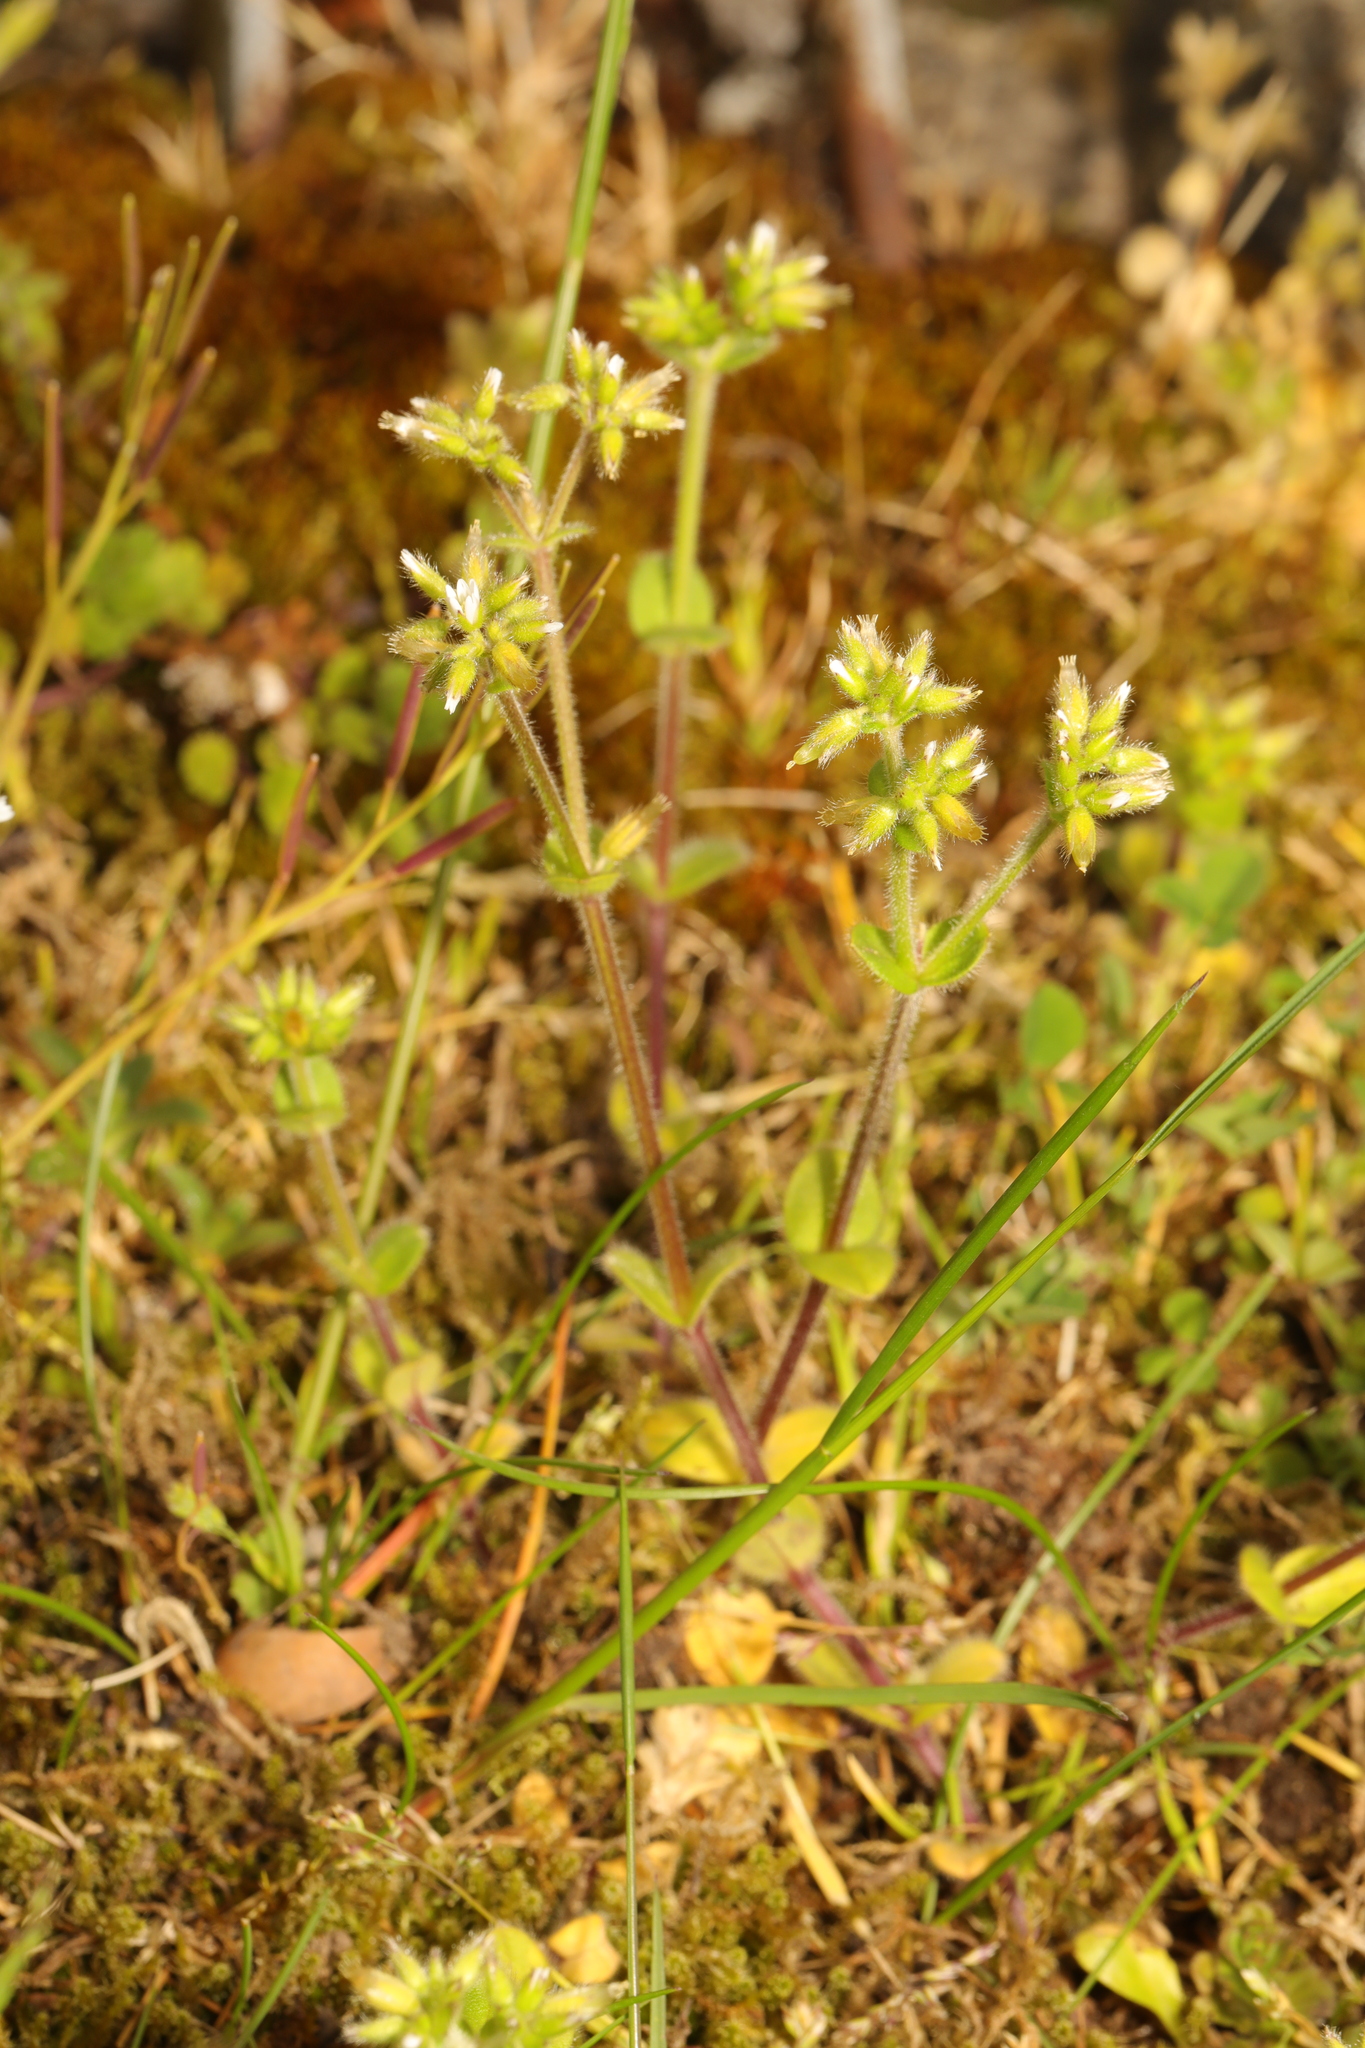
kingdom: Plantae
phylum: Tracheophyta
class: Magnoliopsida
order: Caryophyllales
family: Caryophyllaceae
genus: Cerastium
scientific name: Cerastium glomeratum
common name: Sticky chickweed
